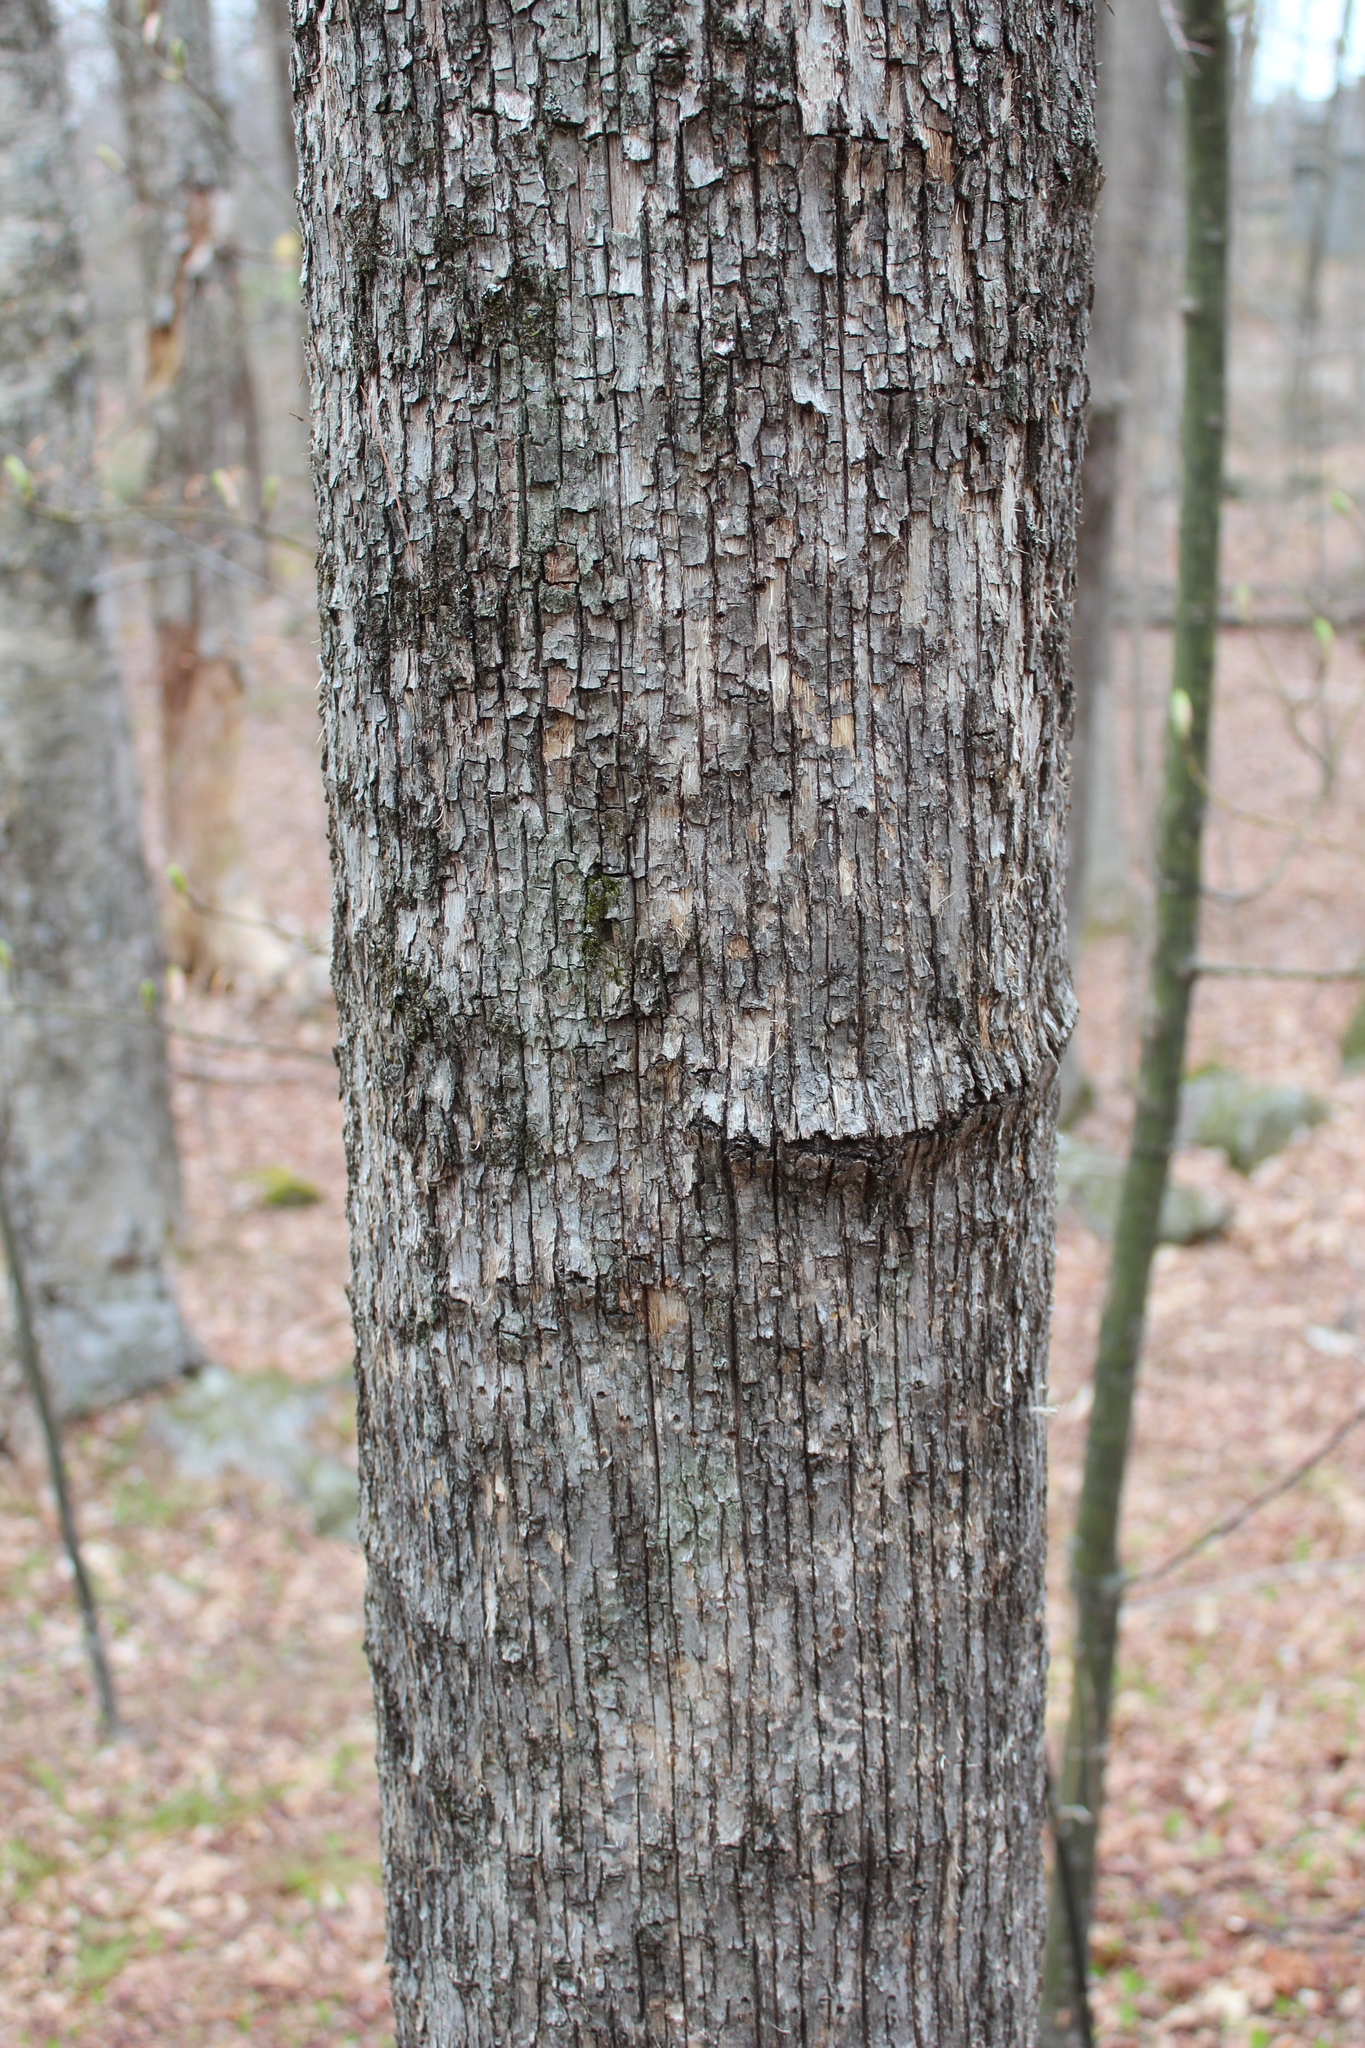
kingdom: Plantae
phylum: Tracheophyta
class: Magnoliopsida
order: Fagales
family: Betulaceae
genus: Ostrya
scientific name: Ostrya virginiana
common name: Ironwood
